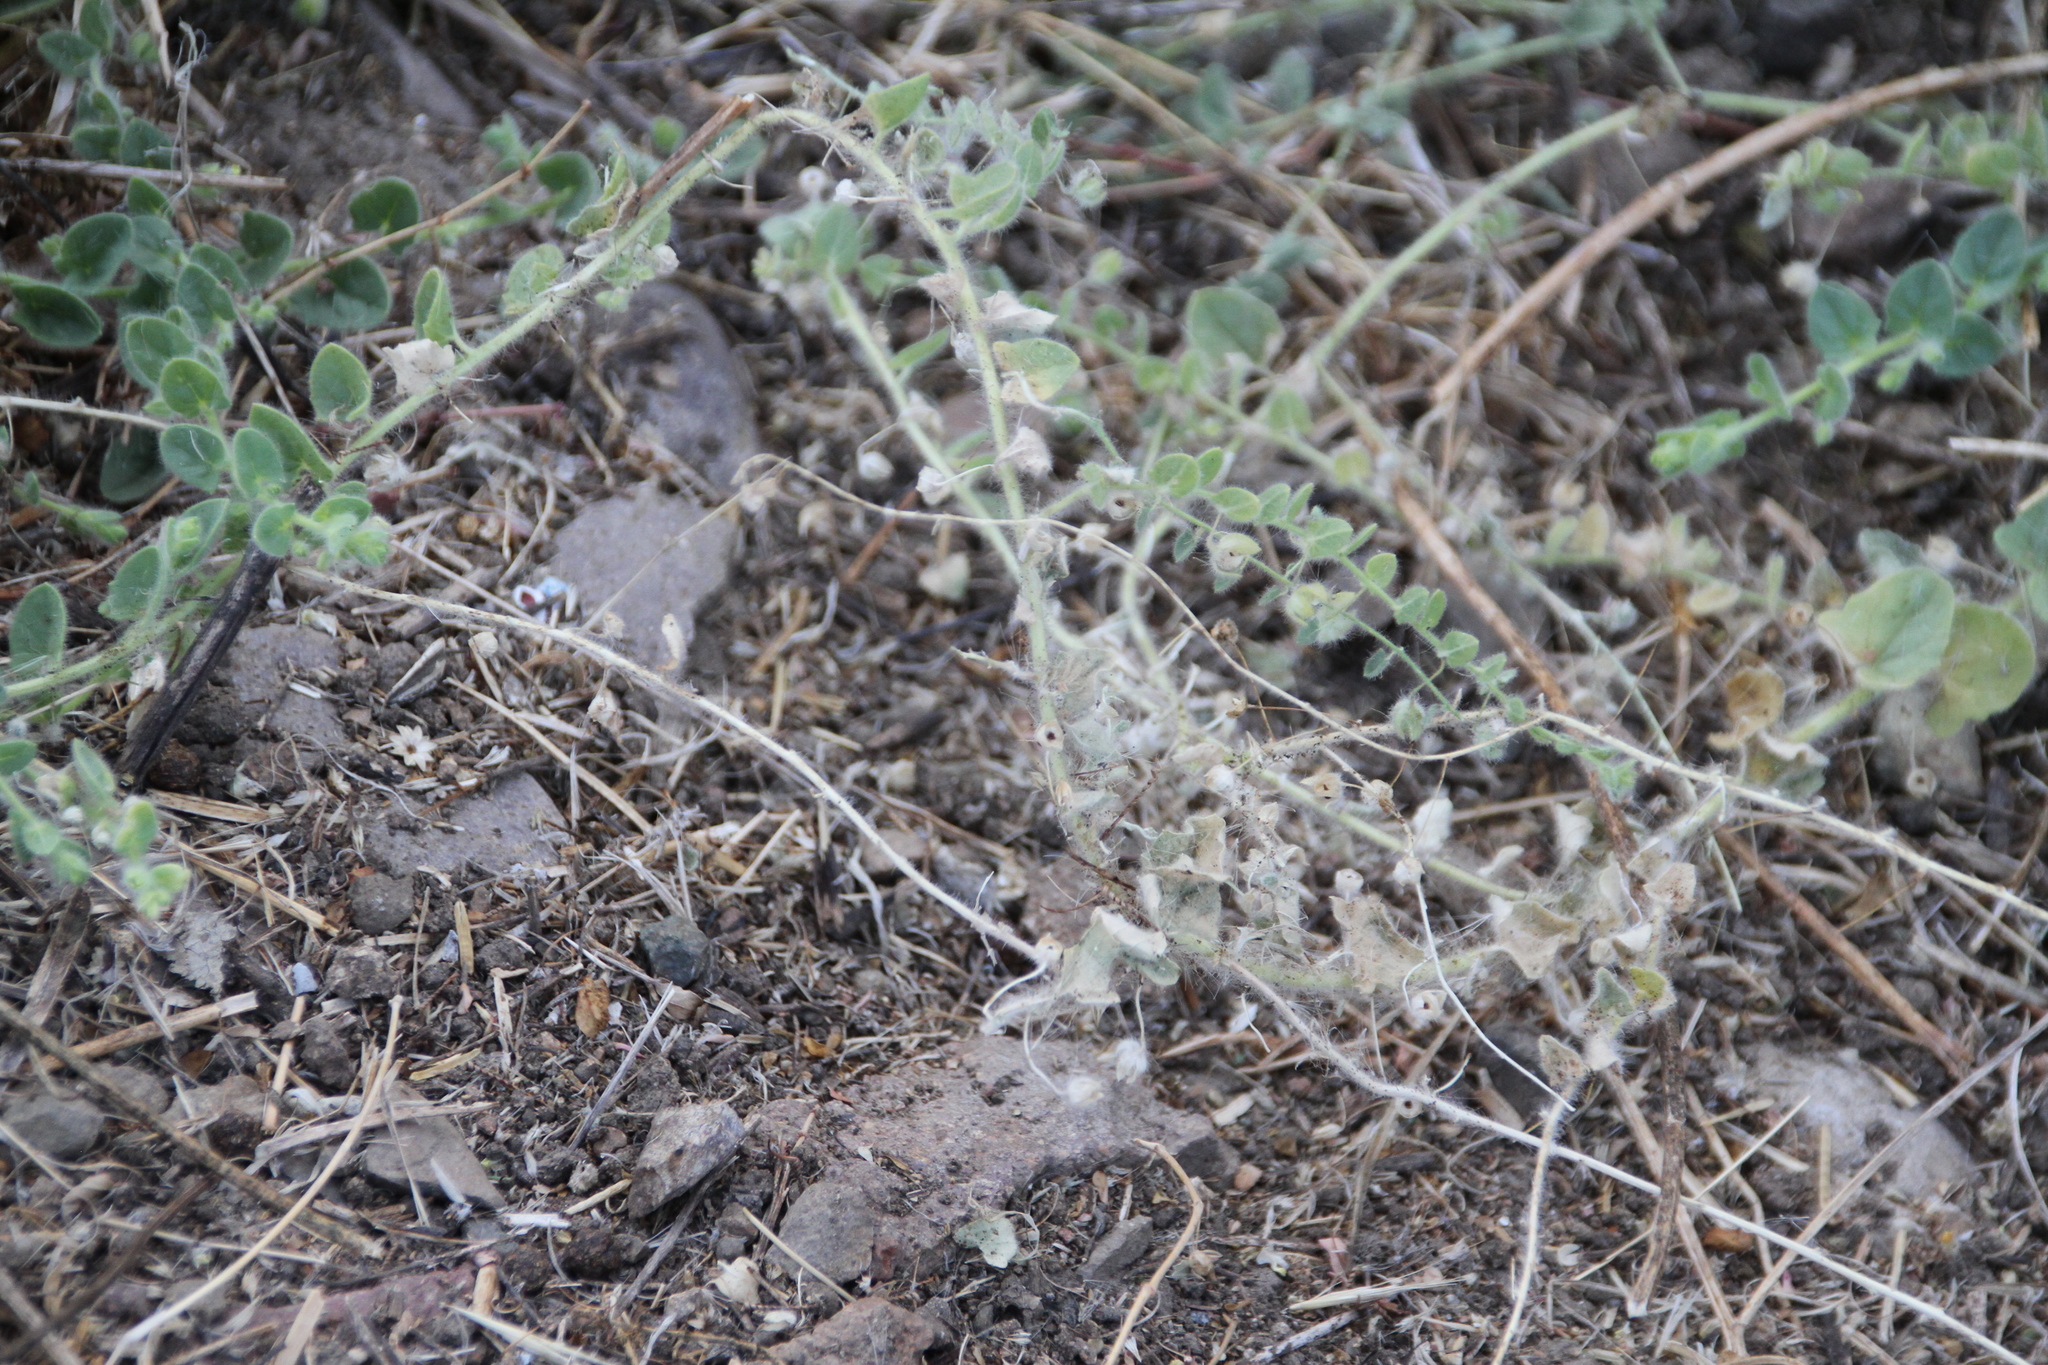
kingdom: Plantae
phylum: Tracheophyta
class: Magnoliopsida
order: Lamiales
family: Plantaginaceae
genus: Kickxia
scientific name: Kickxia elatine
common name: Sharp-leaved fluellen
